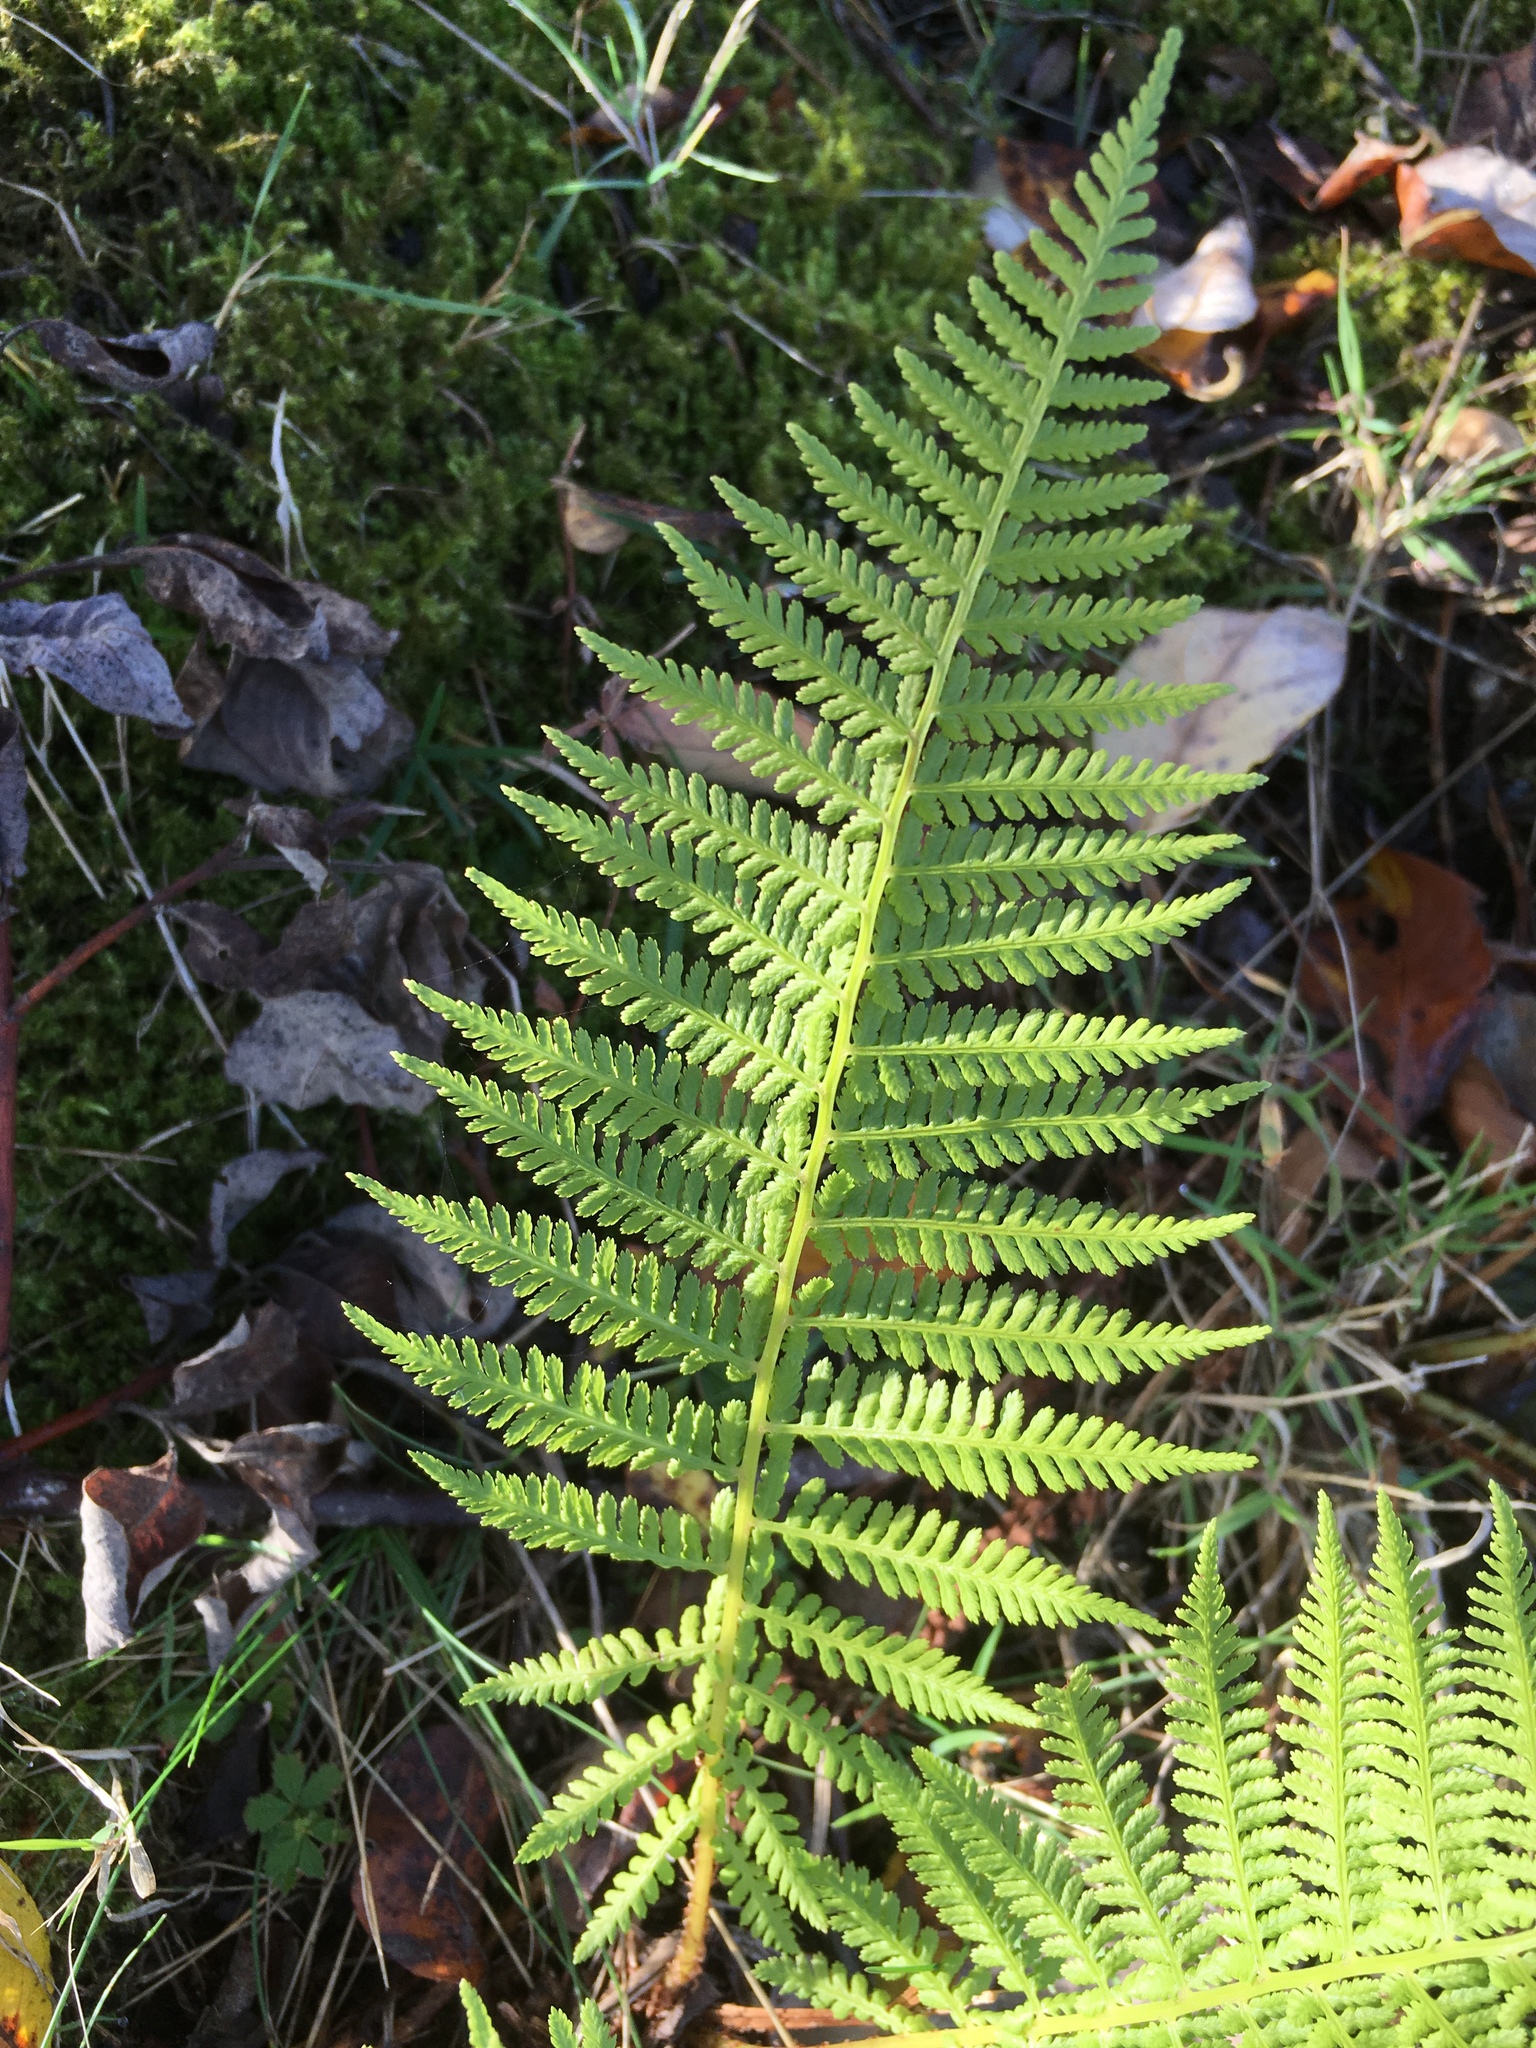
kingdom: Plantae
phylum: Tracheophyta
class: Polypodiopsida
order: Polypodiales
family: Athyriaceae
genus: Athyrium
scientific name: Athyrium filix-femina
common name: Lady fern
